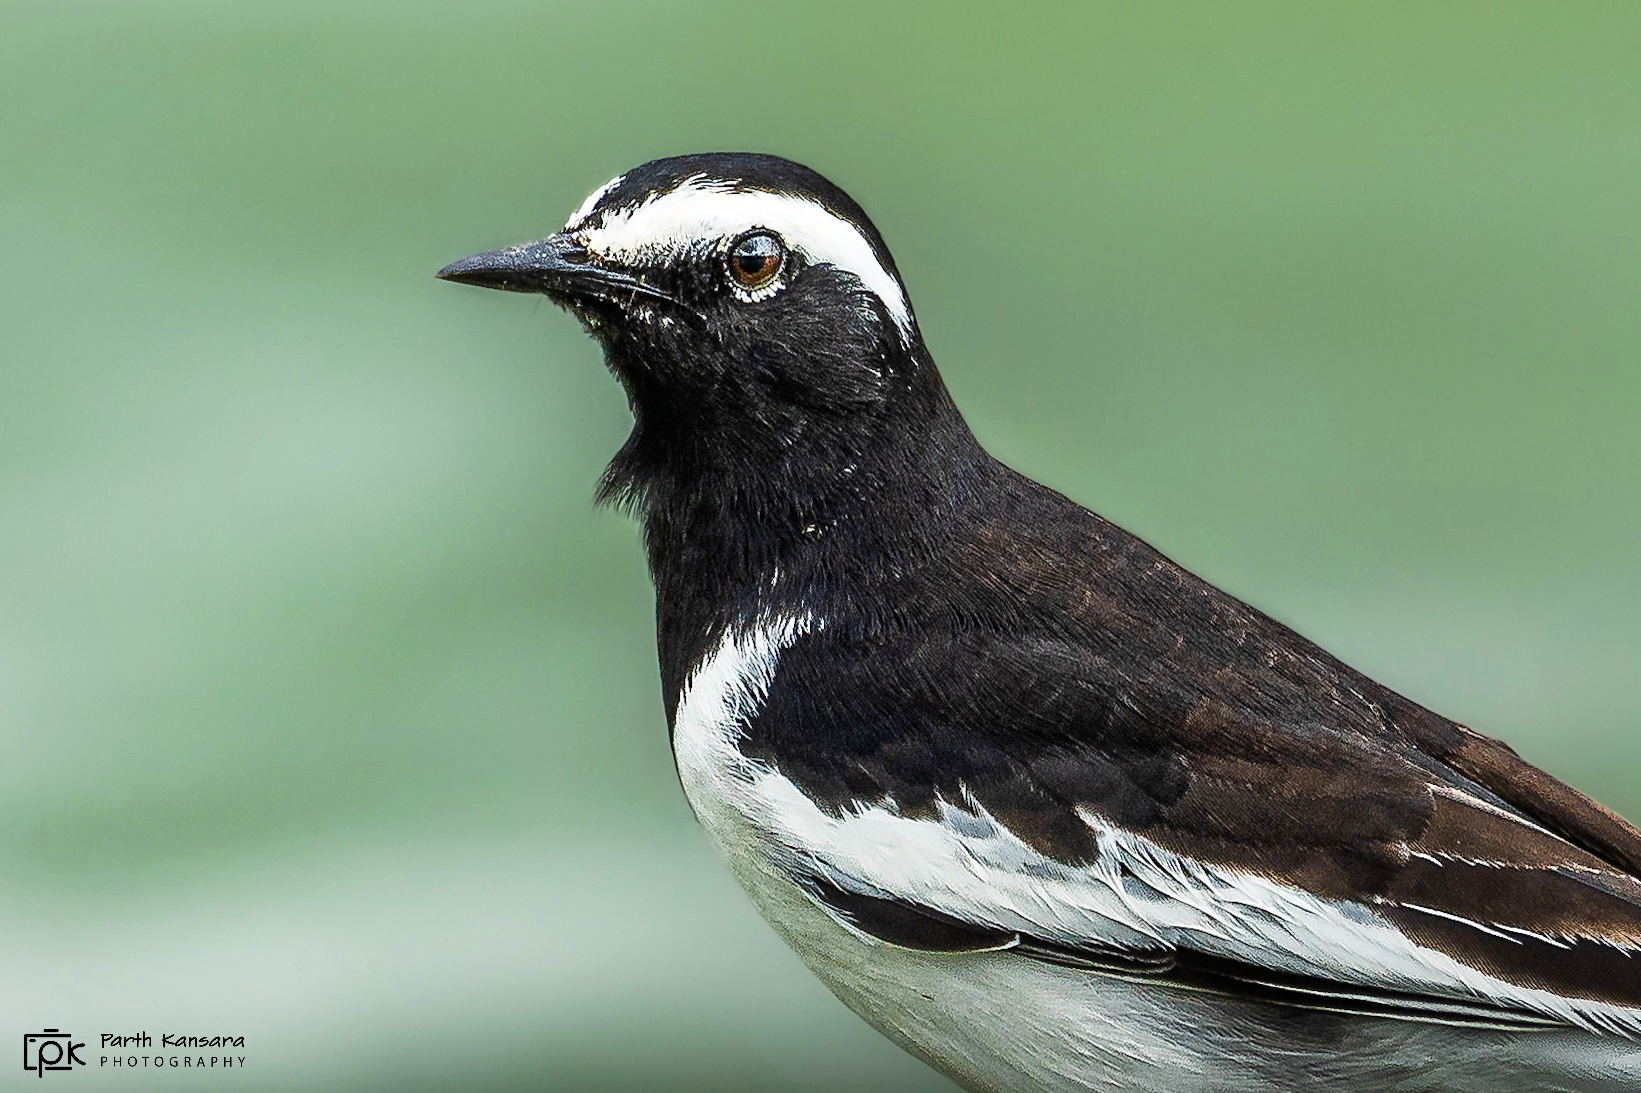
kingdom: Animalia
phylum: Chordata
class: Aves
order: Passeriformes
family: Motacillidae
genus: Motacilla
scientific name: Motacilla maderaspatensis
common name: White-browed wagtail
